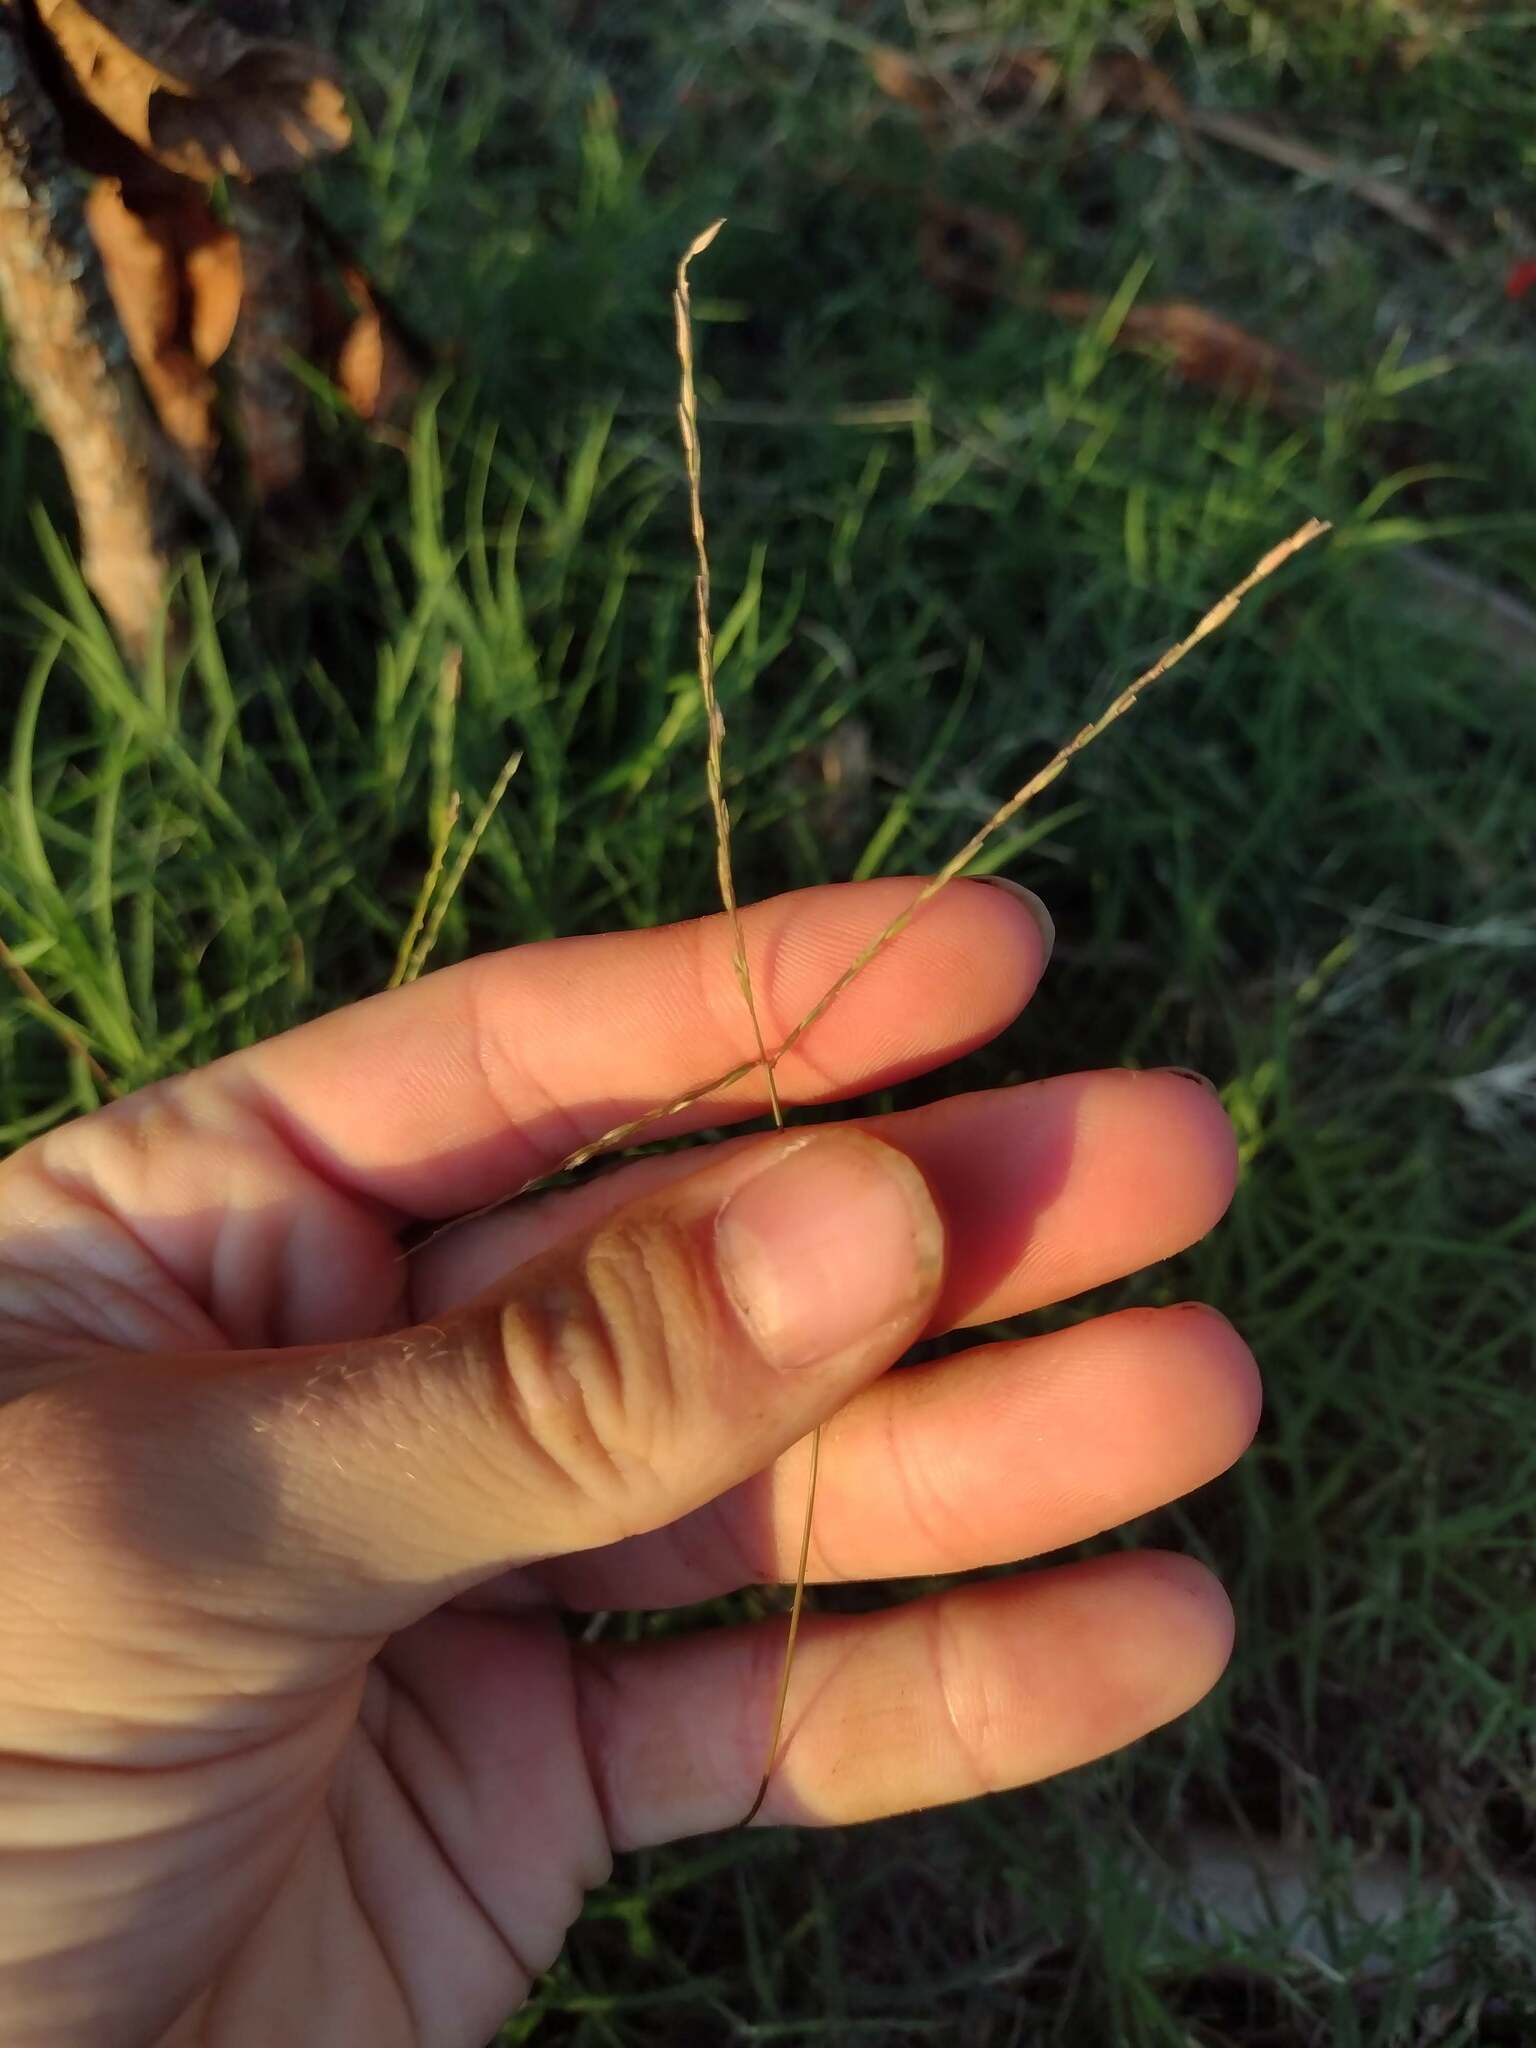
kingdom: Plantae
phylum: Tracheophyta
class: Liliopsida
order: Poales
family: Poaceae
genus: Digitaria
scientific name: Digitaria radicosa
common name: Trailing crabgrass
